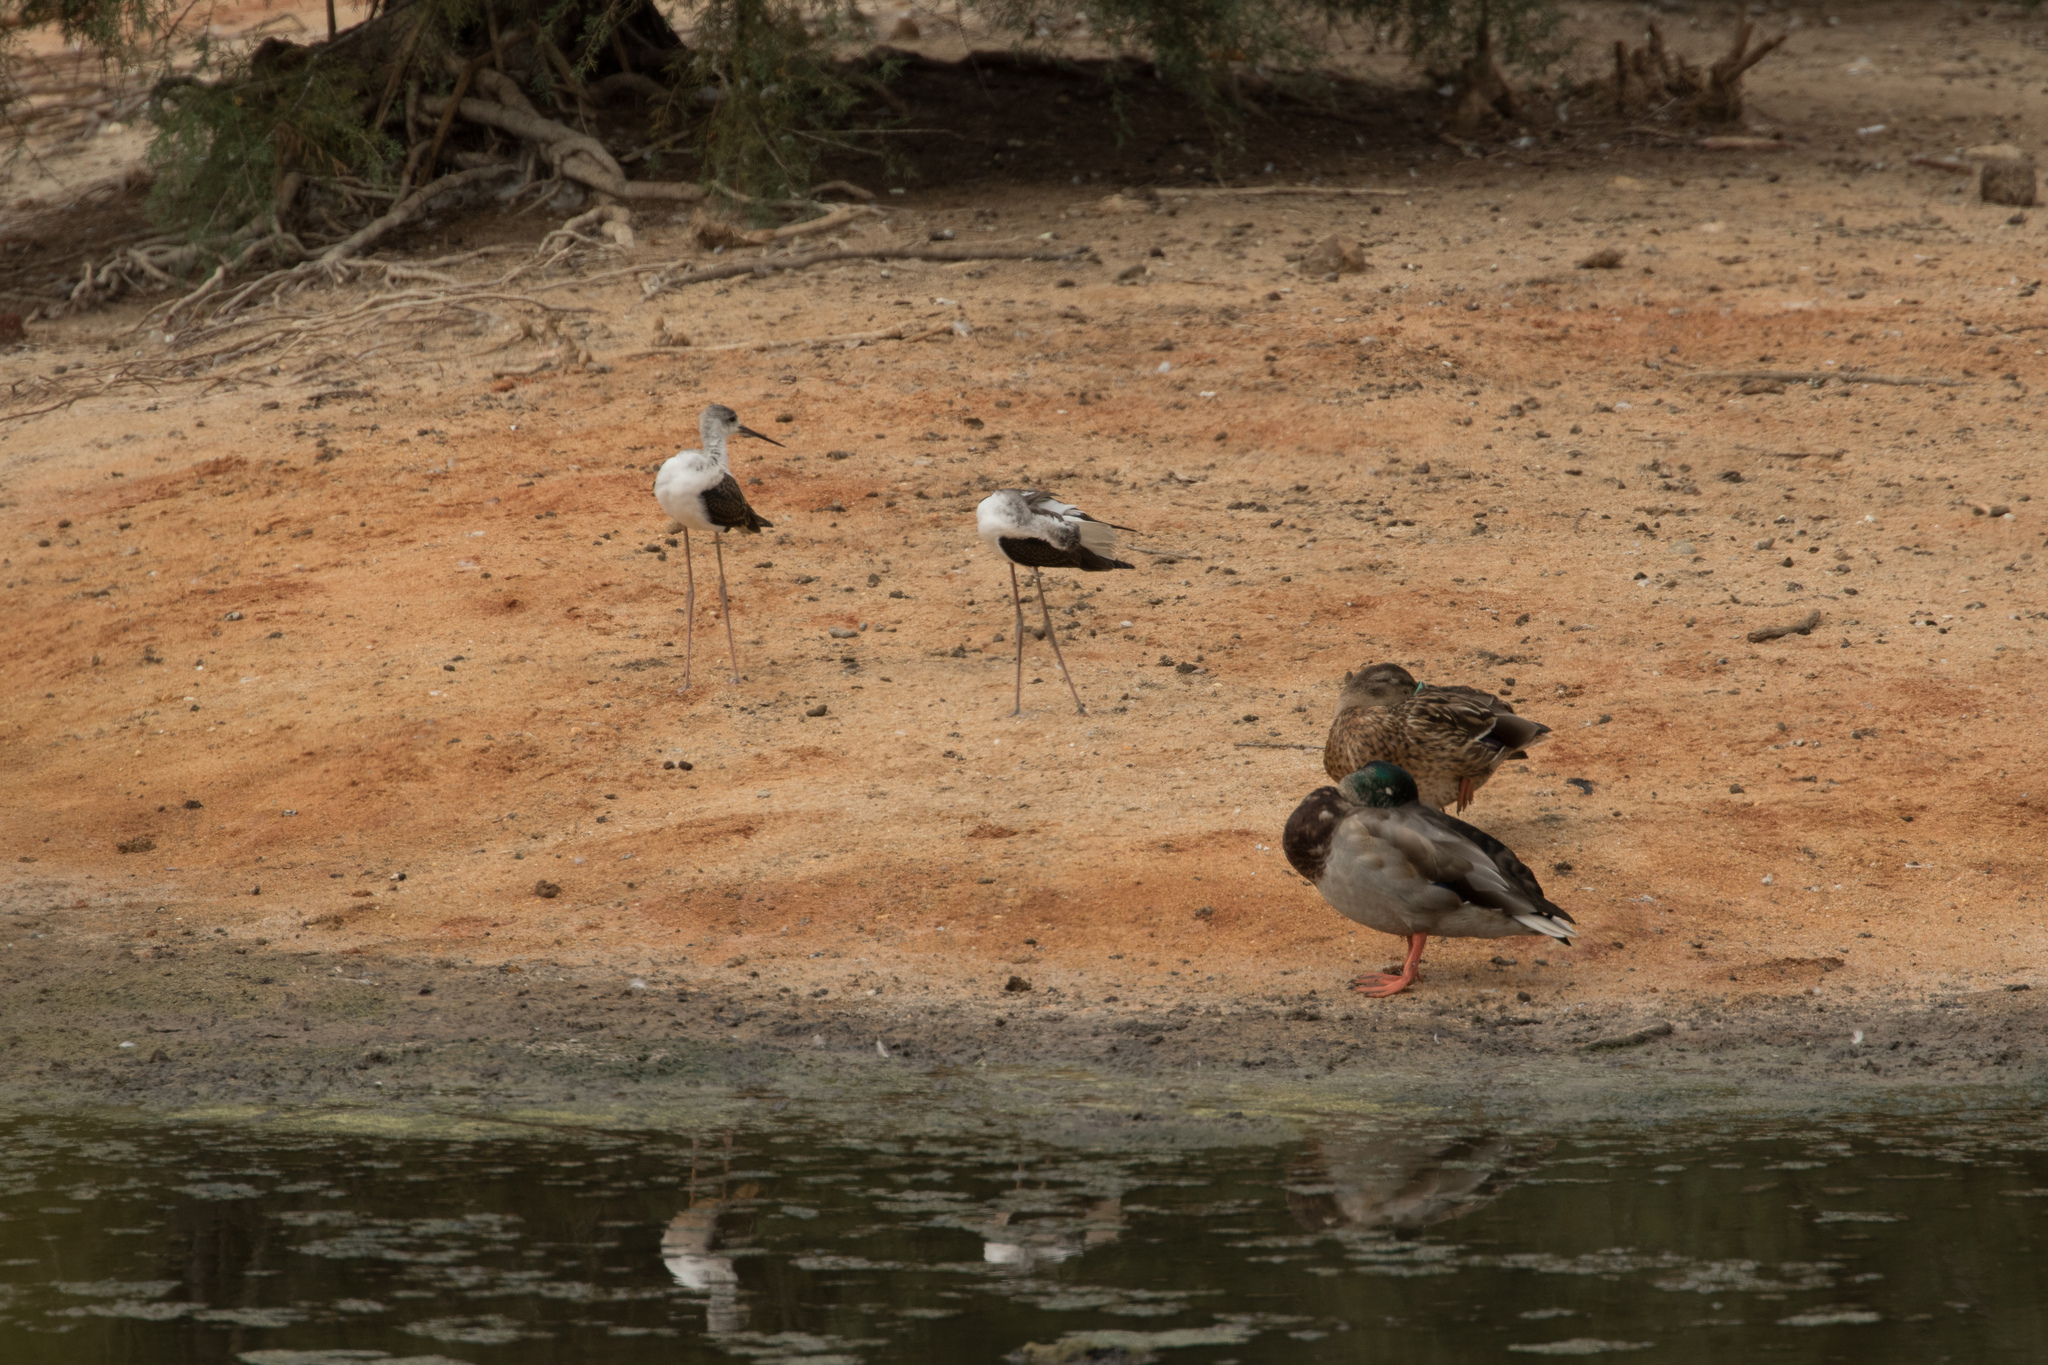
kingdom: Animalia
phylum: Chordata
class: Aves
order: Charadriiformes
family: Recurvirostridae
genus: Himantopus
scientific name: Himantopus himantopus
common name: Black-winged stilt
